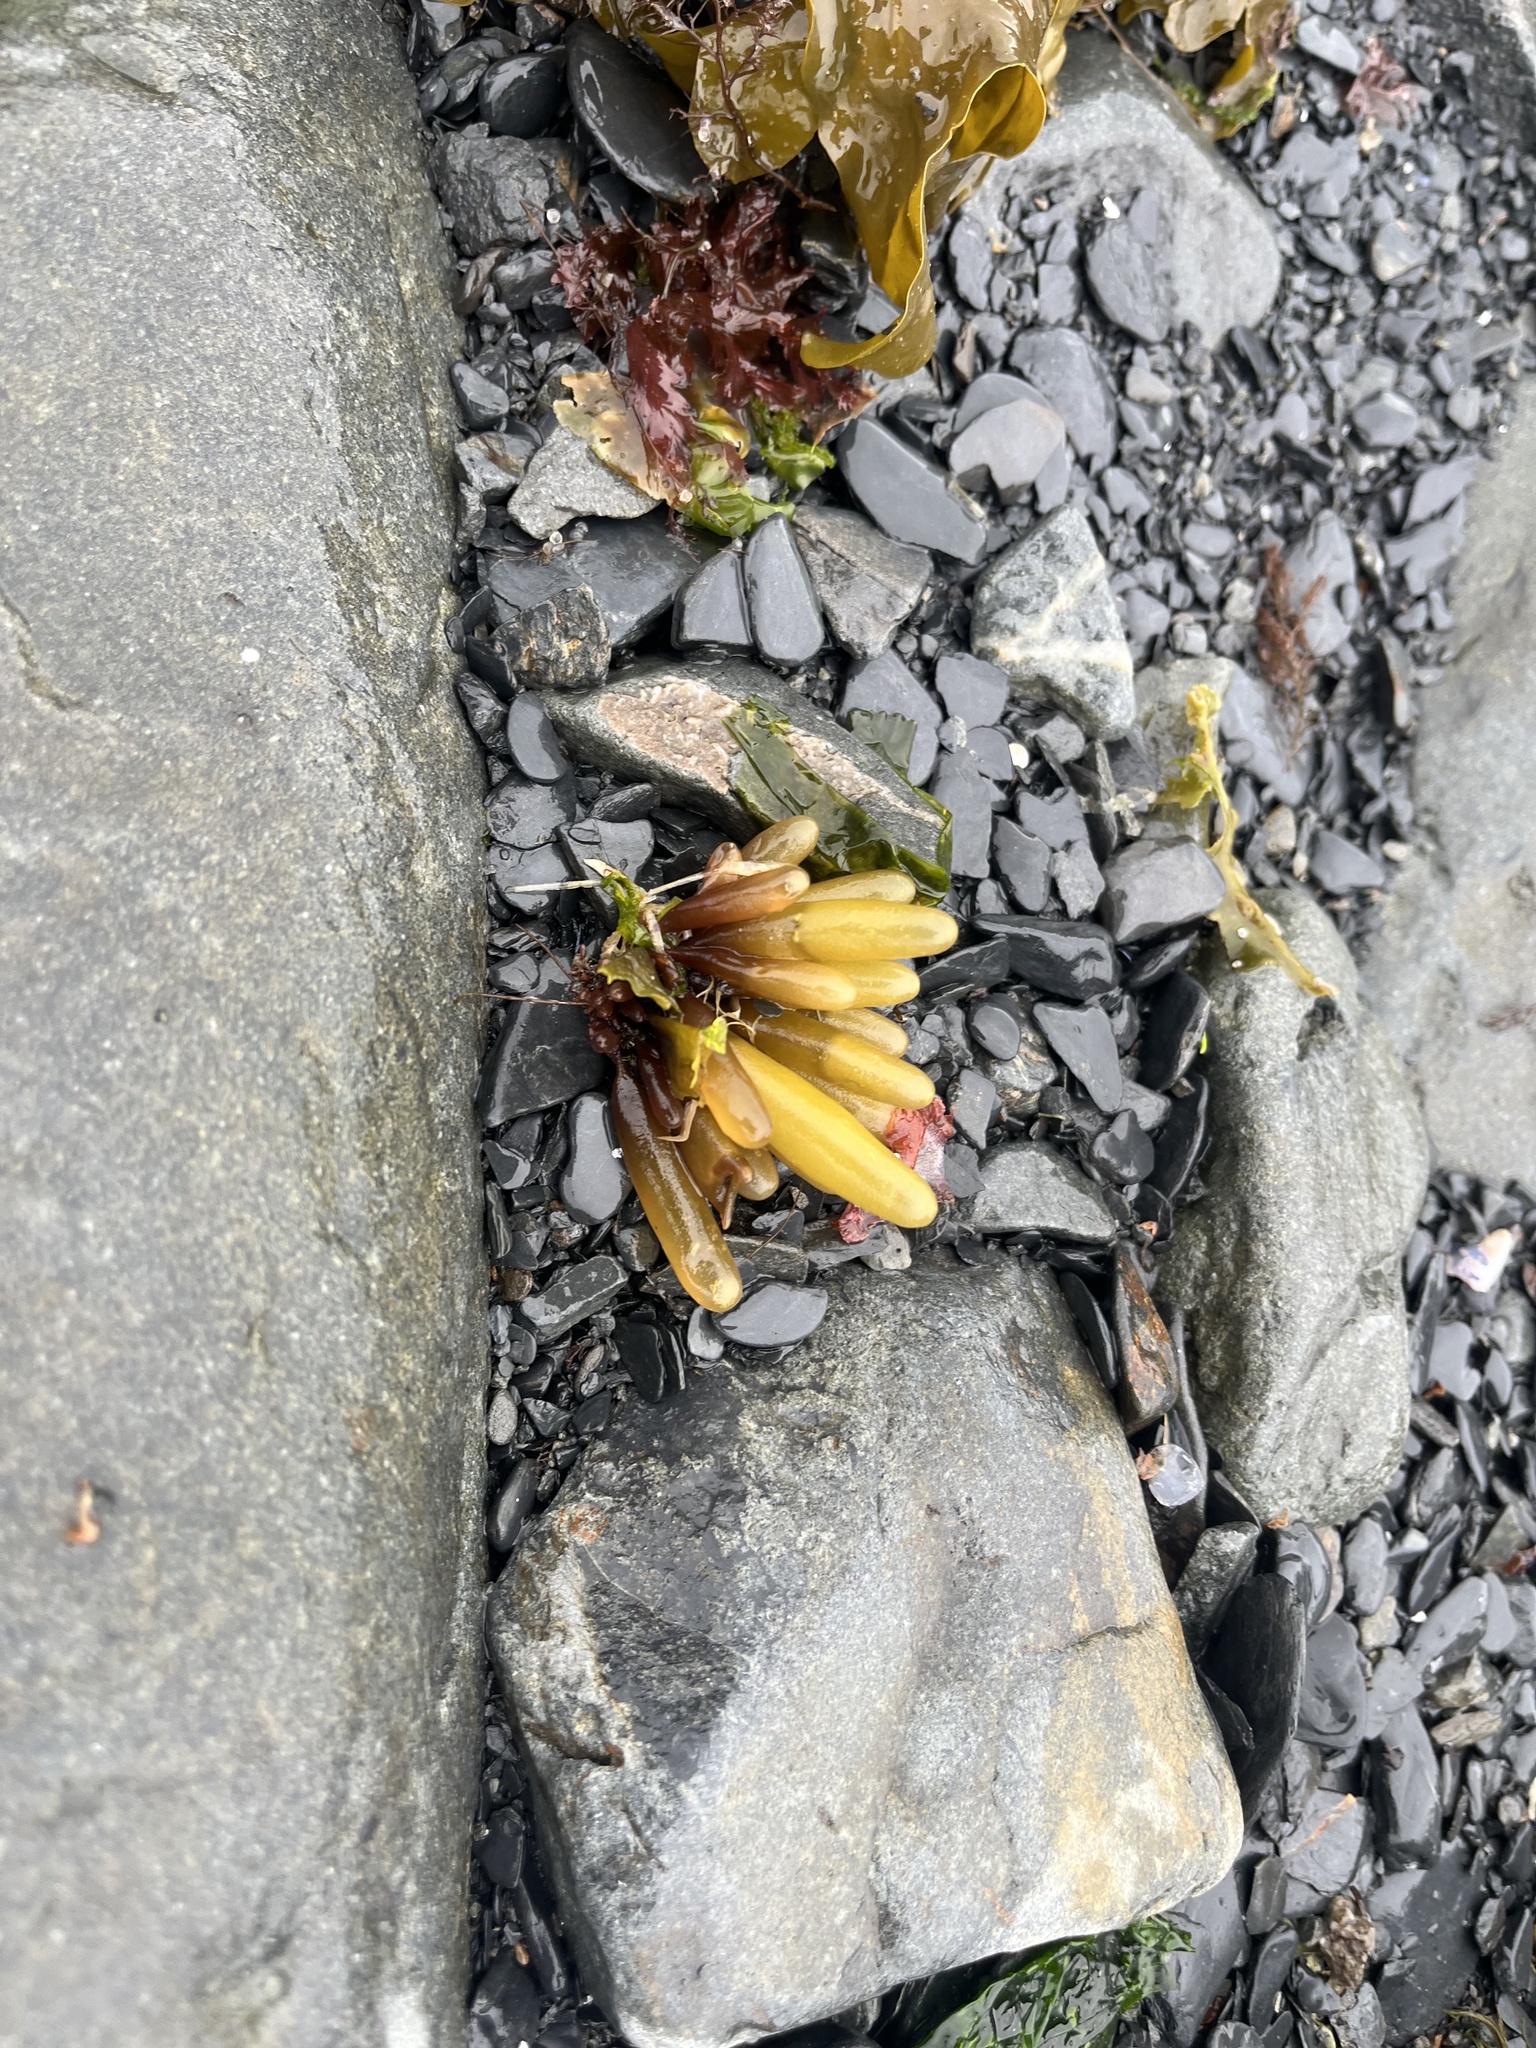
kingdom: Plantae
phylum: Rhodophyta
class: Florideophyceae
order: Palmariales
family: Palmariaceae
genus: Halosaccion
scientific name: Halosaccion glandiforme
